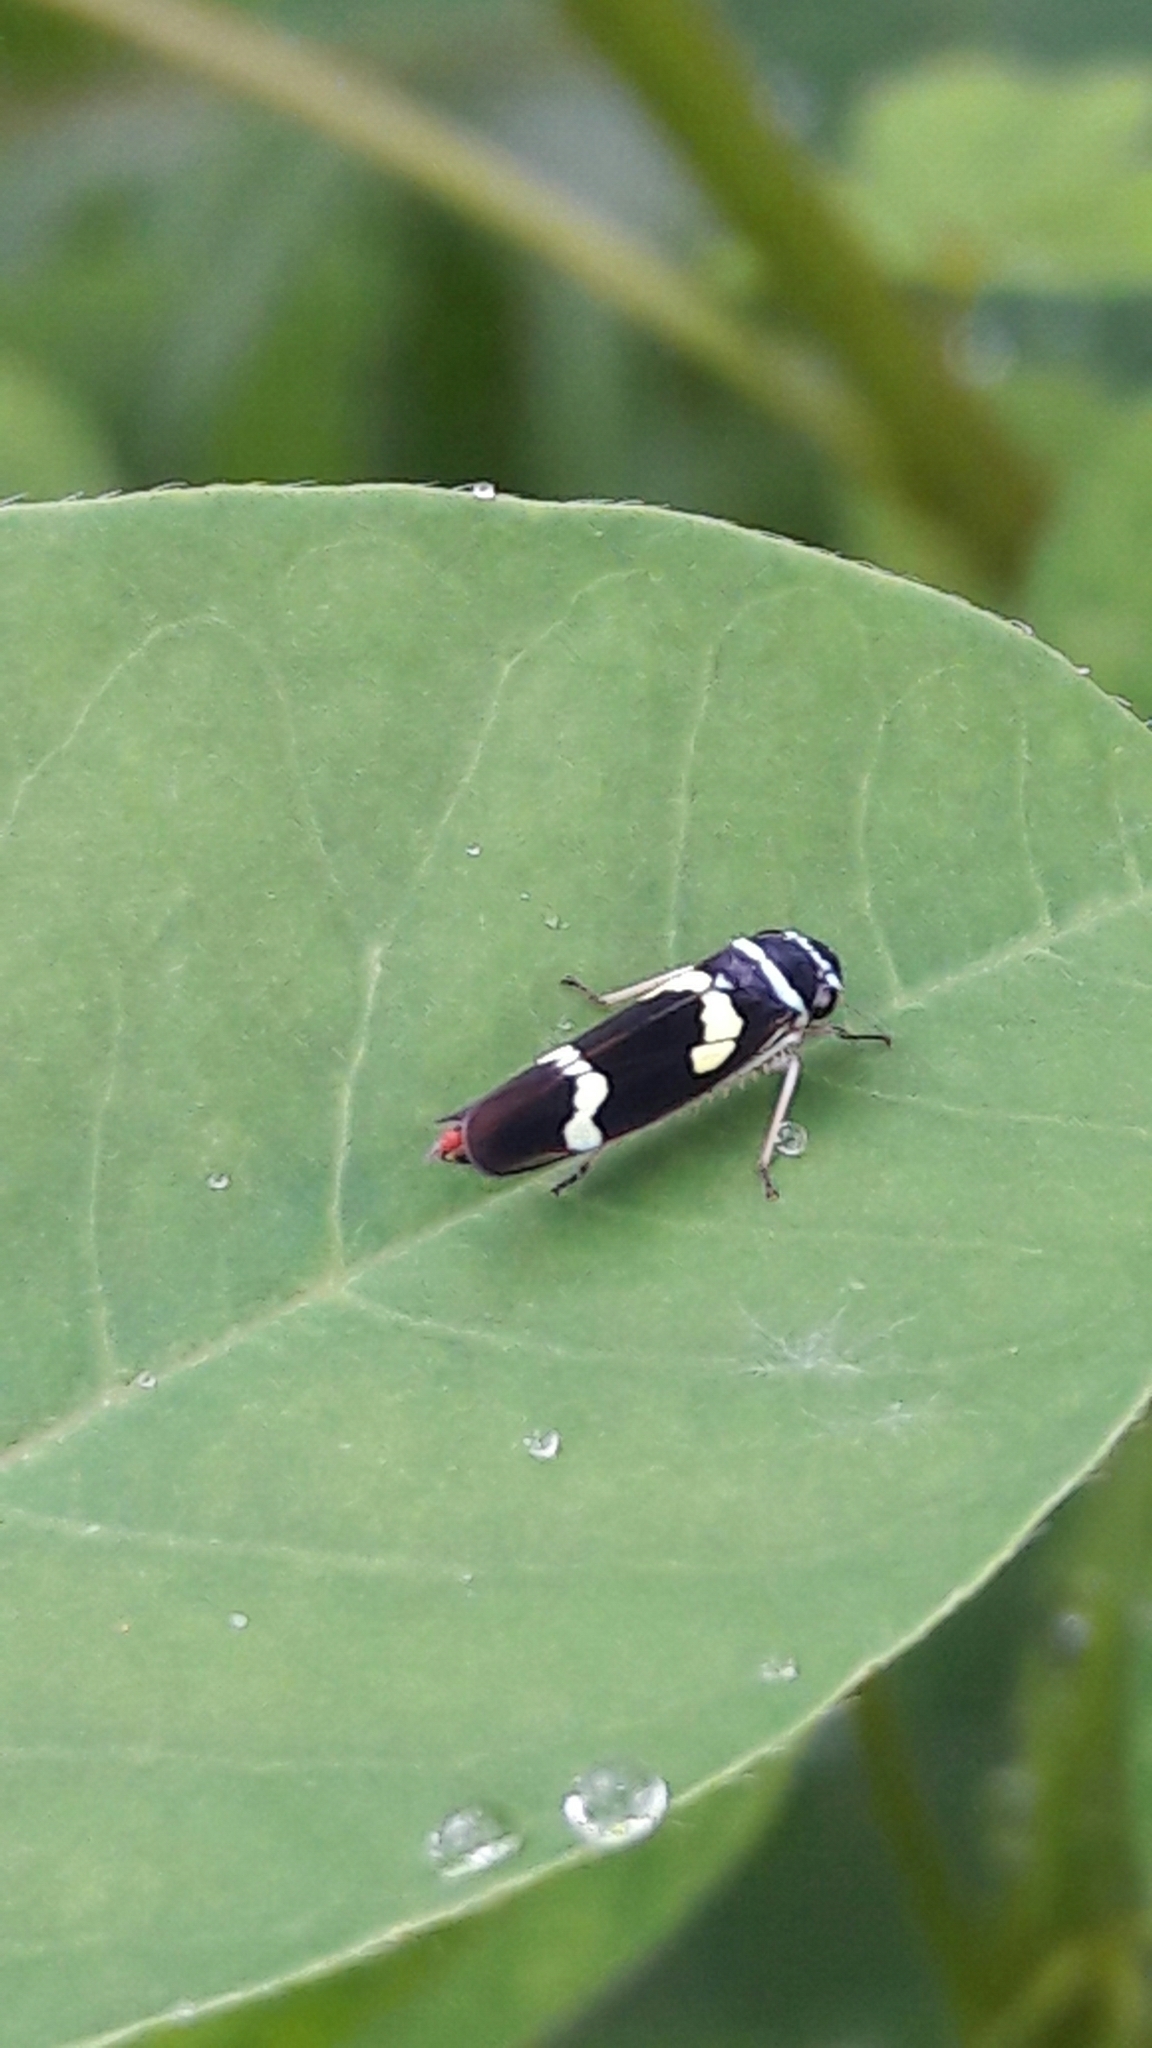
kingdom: Animalia
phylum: Arthropoda
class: Insecta
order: Hemiptera
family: Cicadellidae
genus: Macugonalia
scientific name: Macugonalia leucomelas
